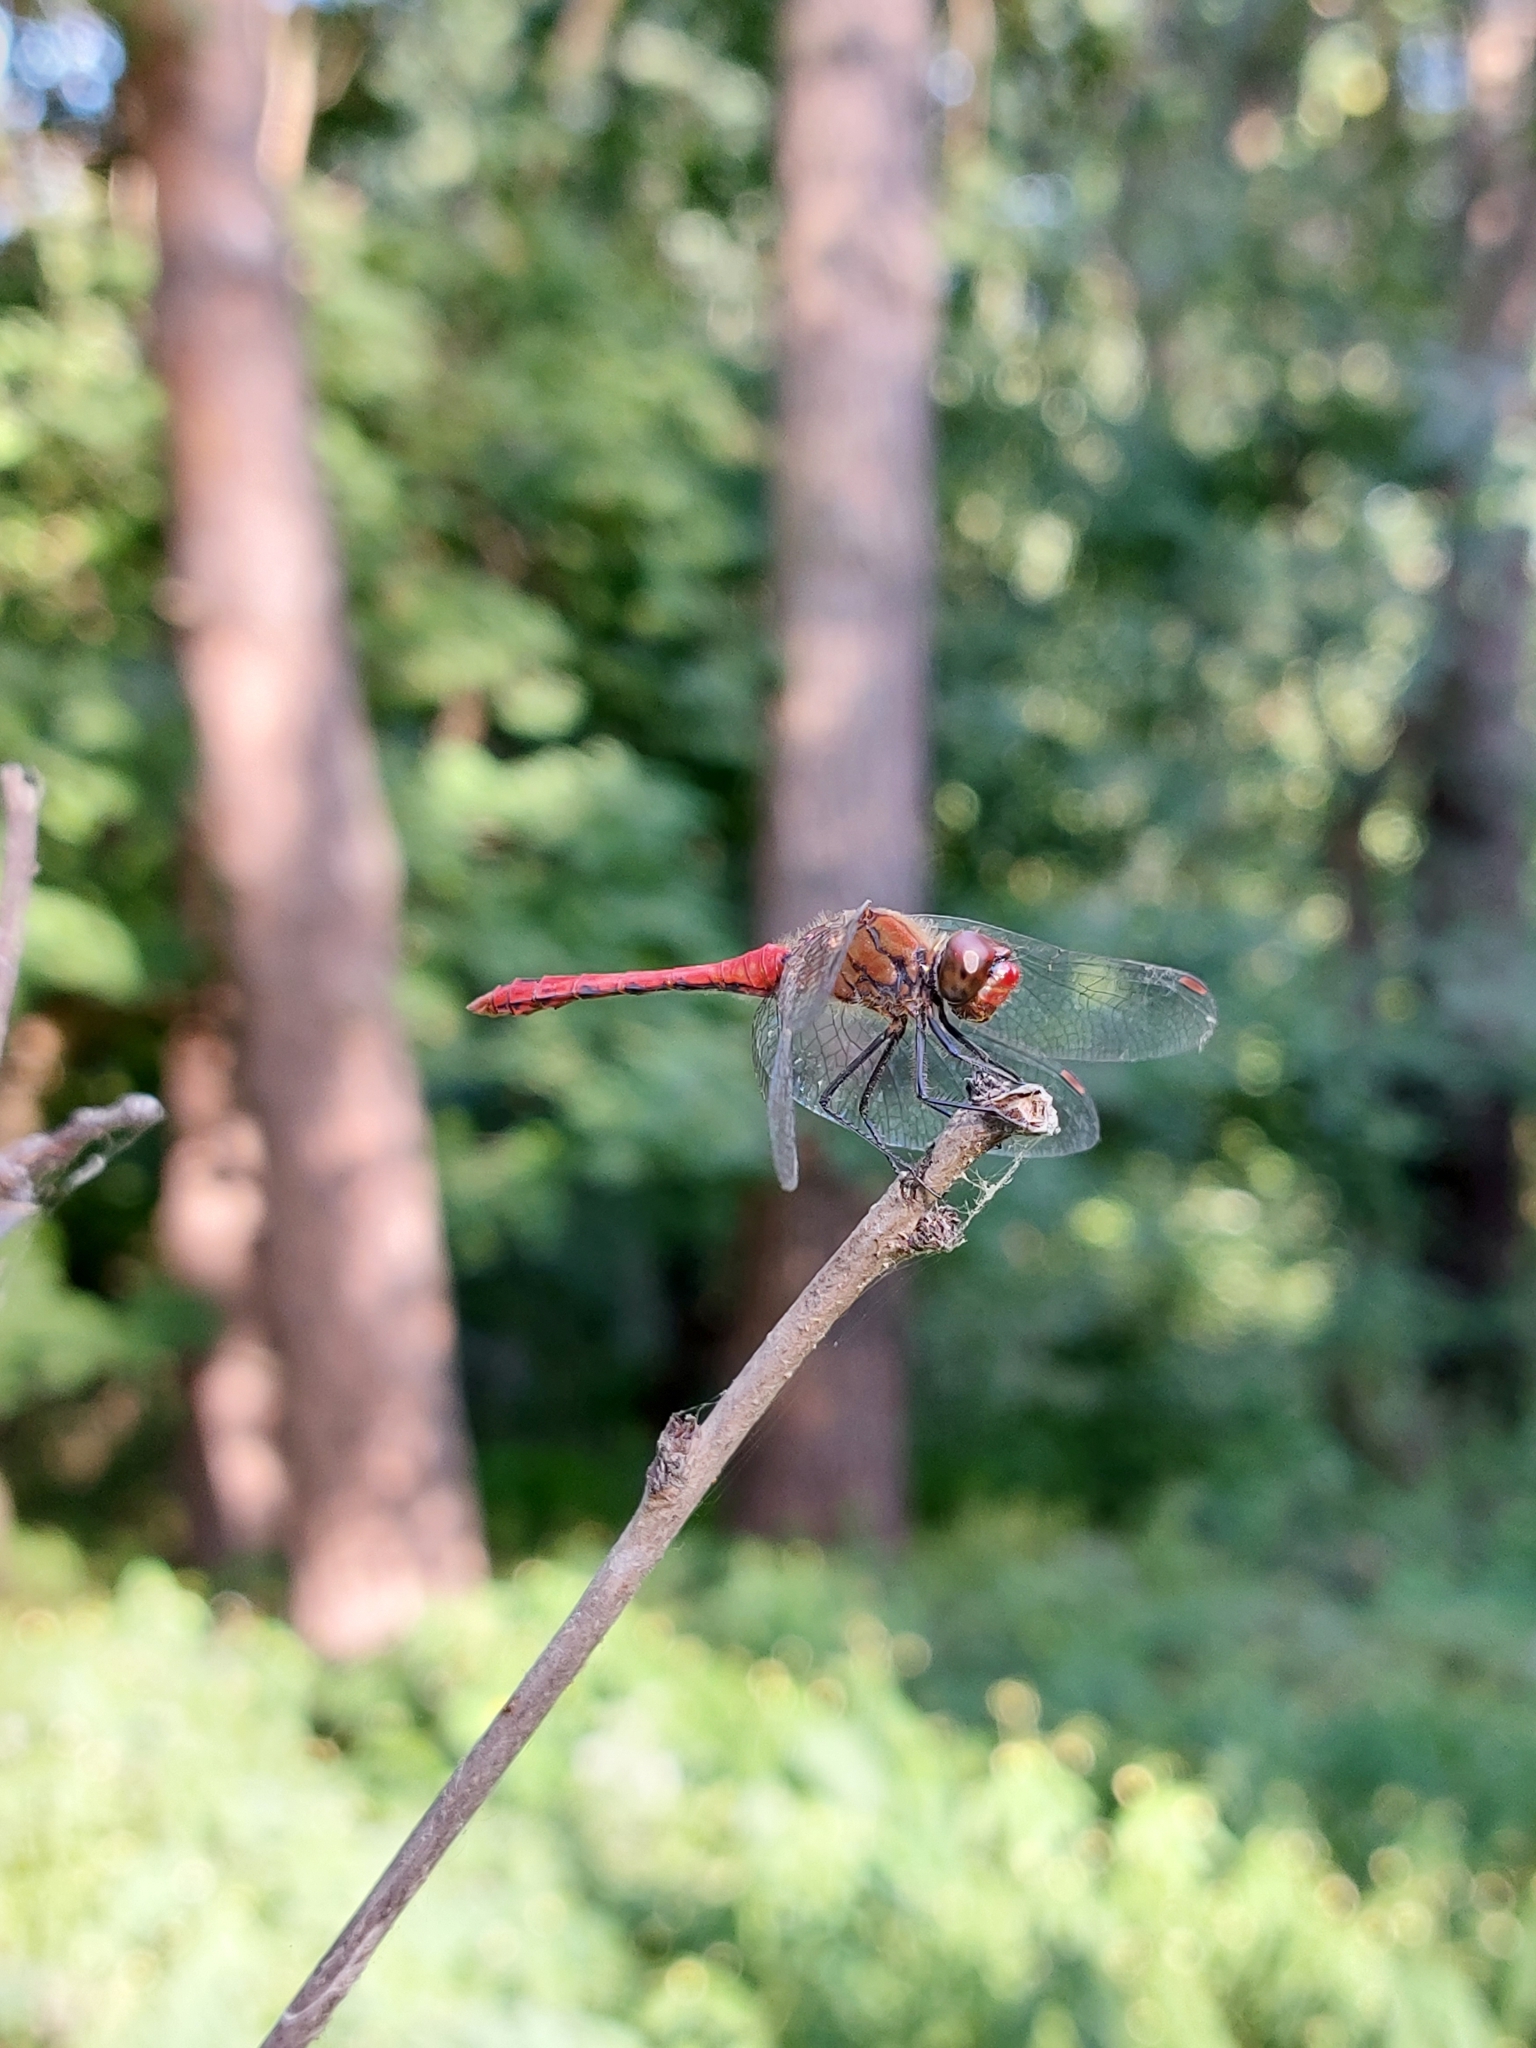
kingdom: Animalia
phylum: Arthropoda
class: Insecta
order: Odonata
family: Libellulidae
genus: Sympetrum
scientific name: Sympetrum sanguineum
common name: Ruddy darter
